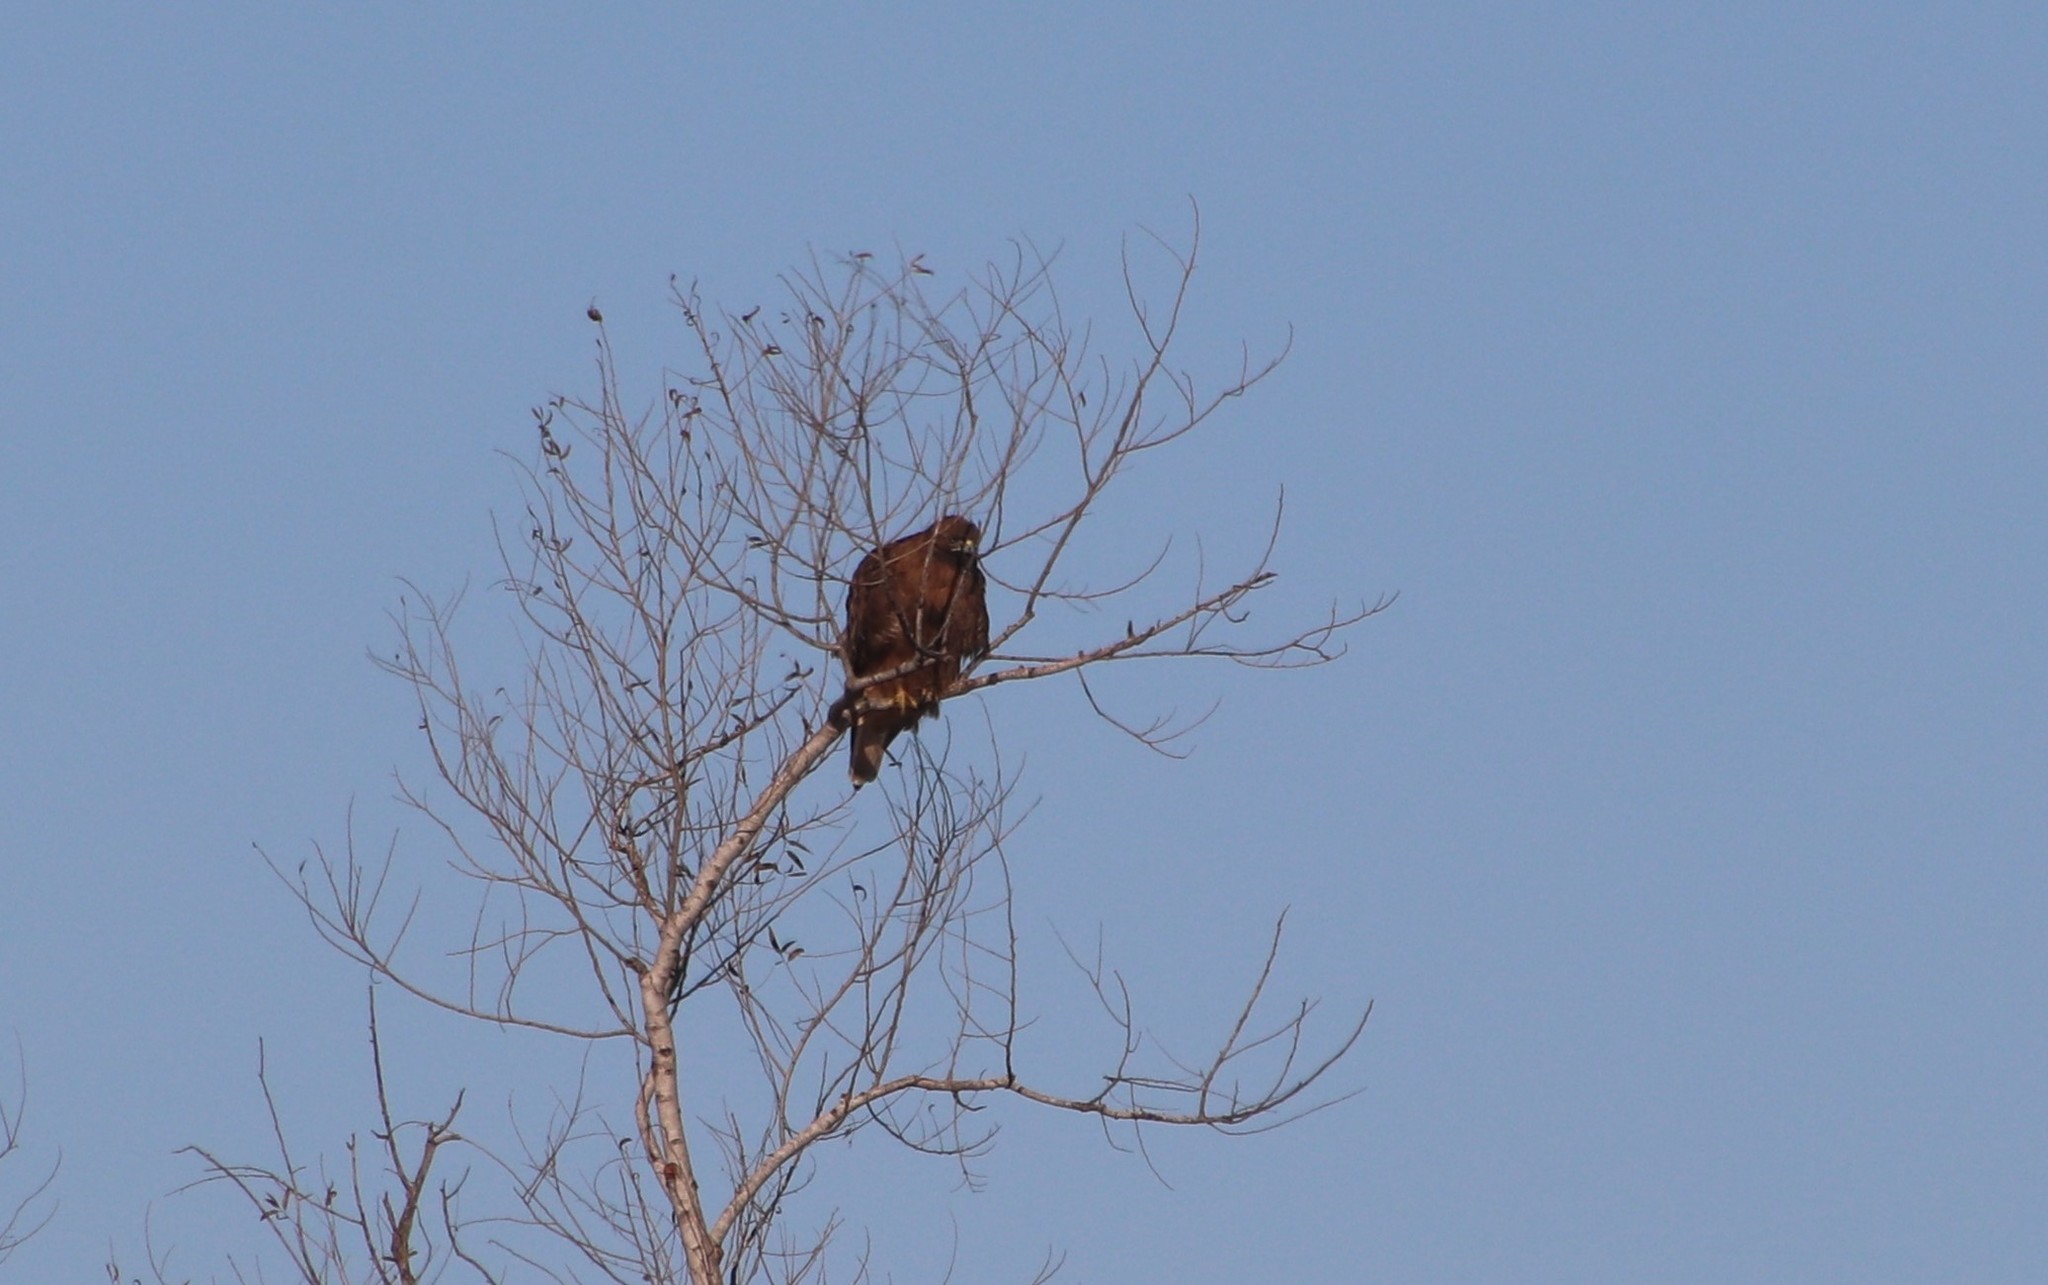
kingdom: Animalia
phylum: Chordata
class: Aves
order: Accipitriformes
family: Accipitridae
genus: Buteo
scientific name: Buteo jamaicensis
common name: Red-tailed hawk
